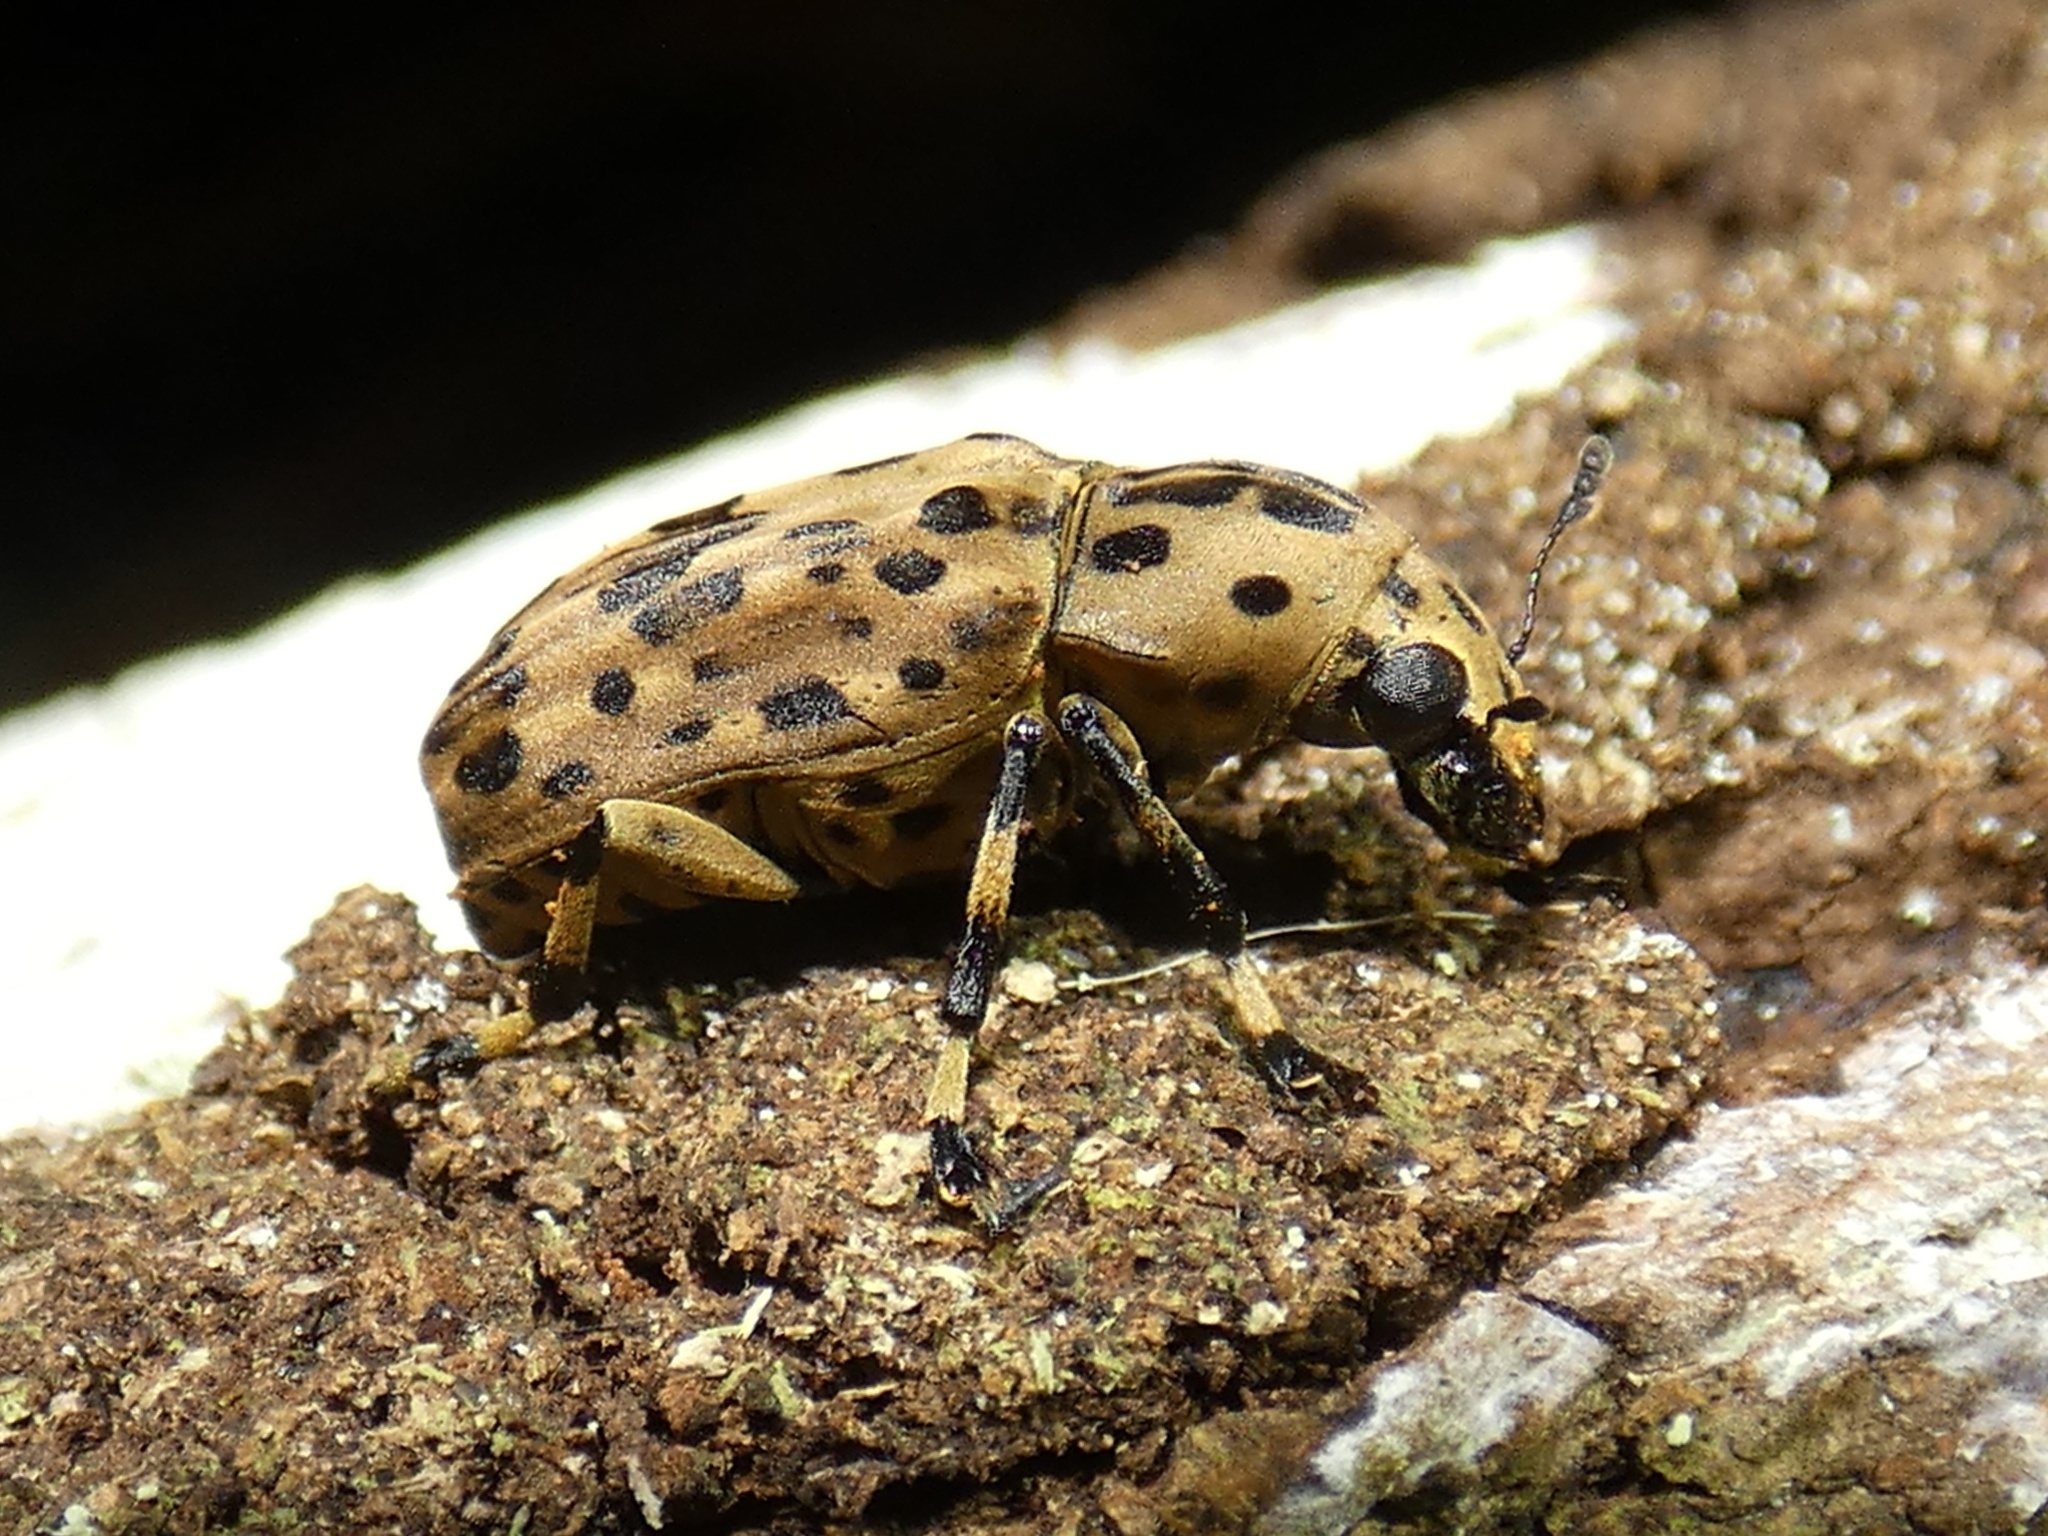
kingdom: Animalia
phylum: Arthropoda
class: Insecta
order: Coleoptera
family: Anthribidae
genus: Euparius
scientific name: Euparius polius
